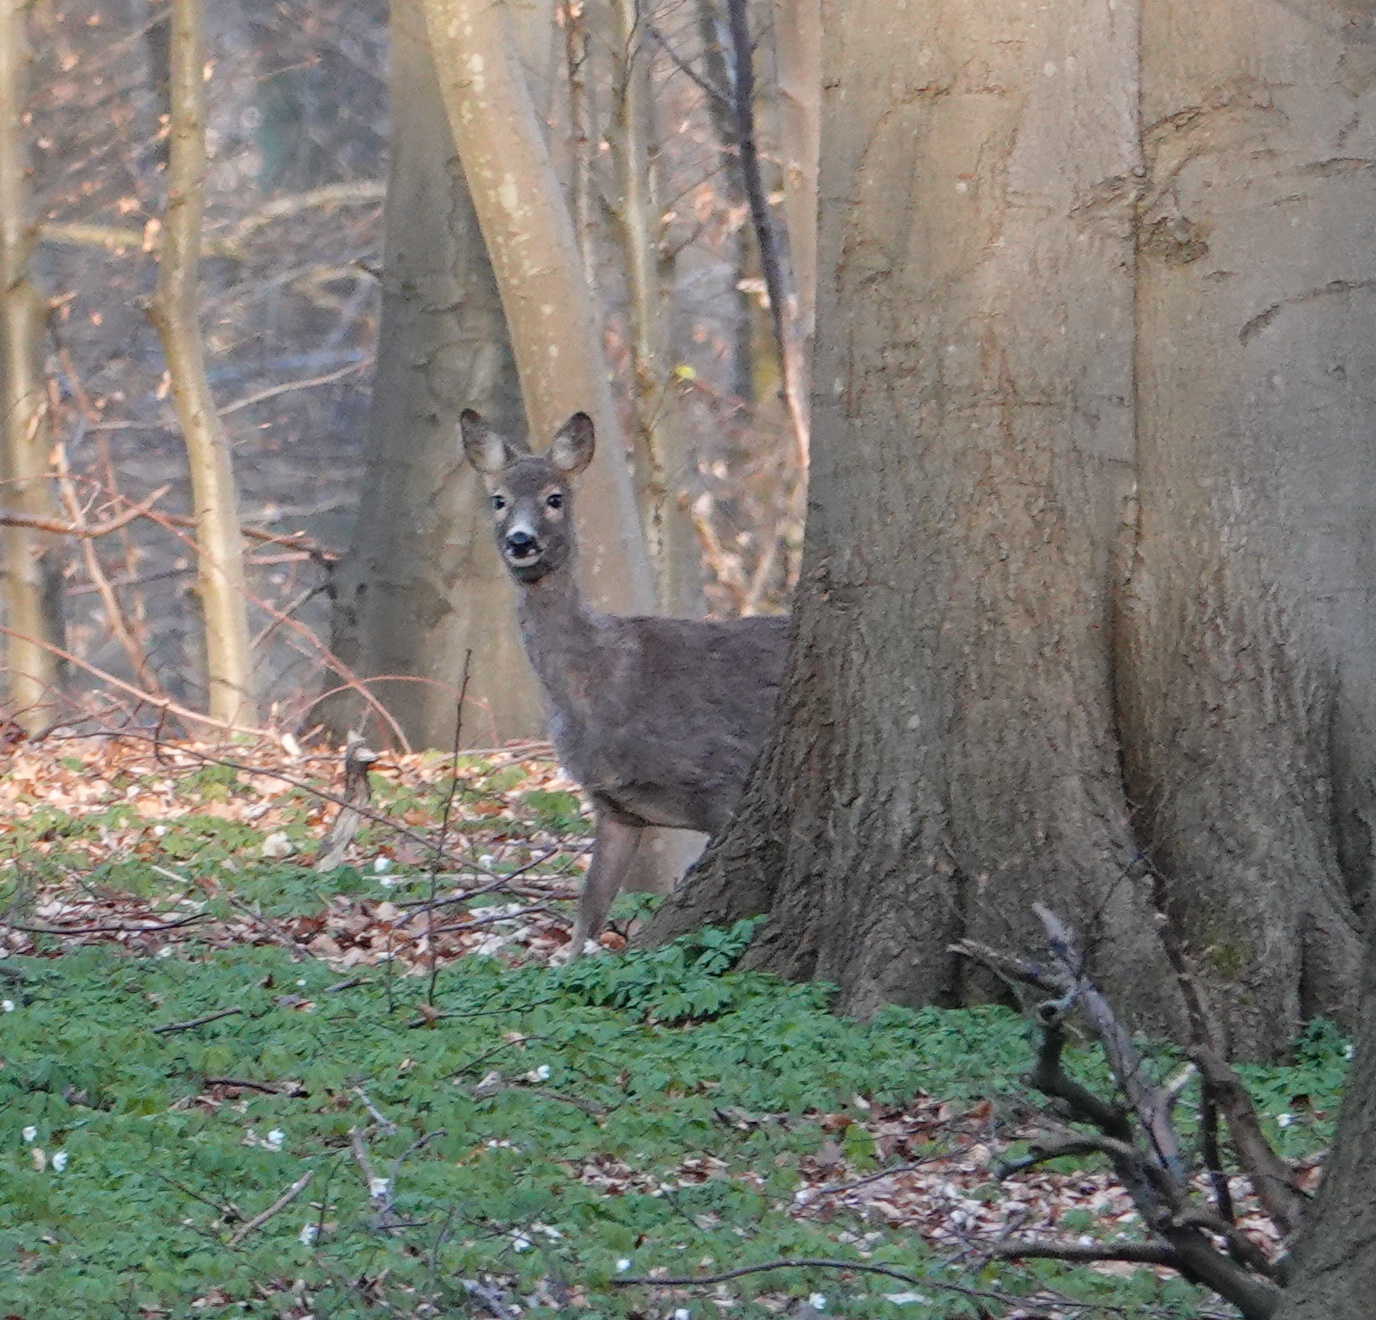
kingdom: Animalia
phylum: Chordata
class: Mammalia
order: Artiodactyla
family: Cervidae
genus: Capreolus
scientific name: Capreolus capreolus
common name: Western roe deer
